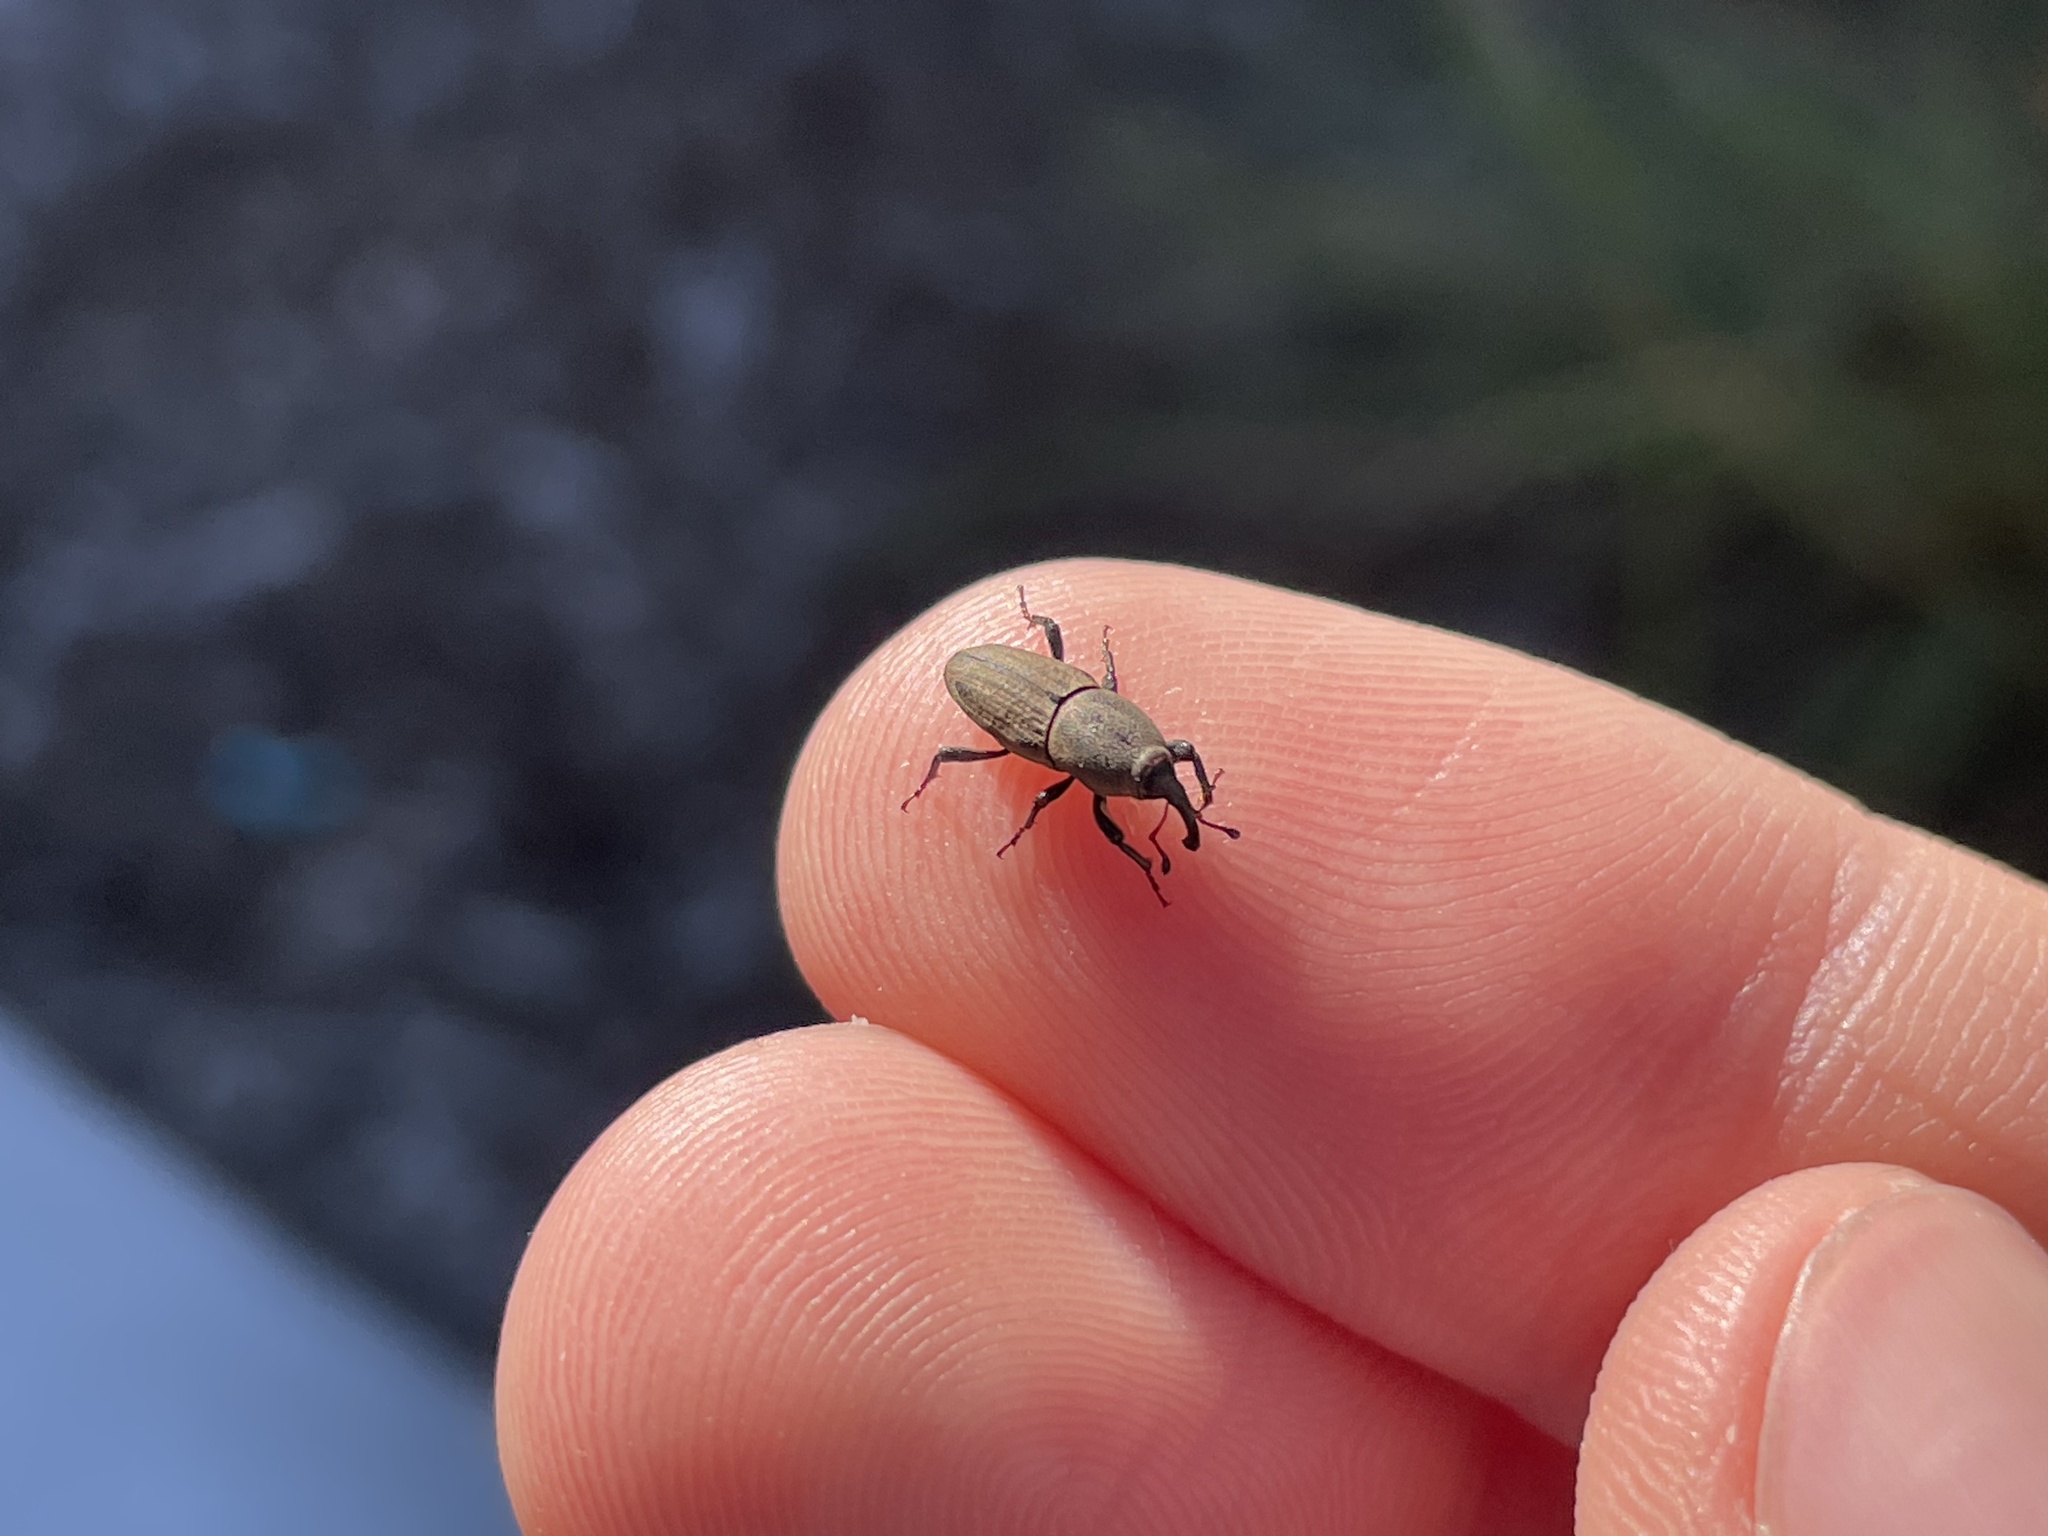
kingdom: Animalia
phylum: Arthropoda
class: Insecta
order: Coleoptera
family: Dryophthoridae
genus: Sphenophorus
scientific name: Sphenophorus interstitialis
